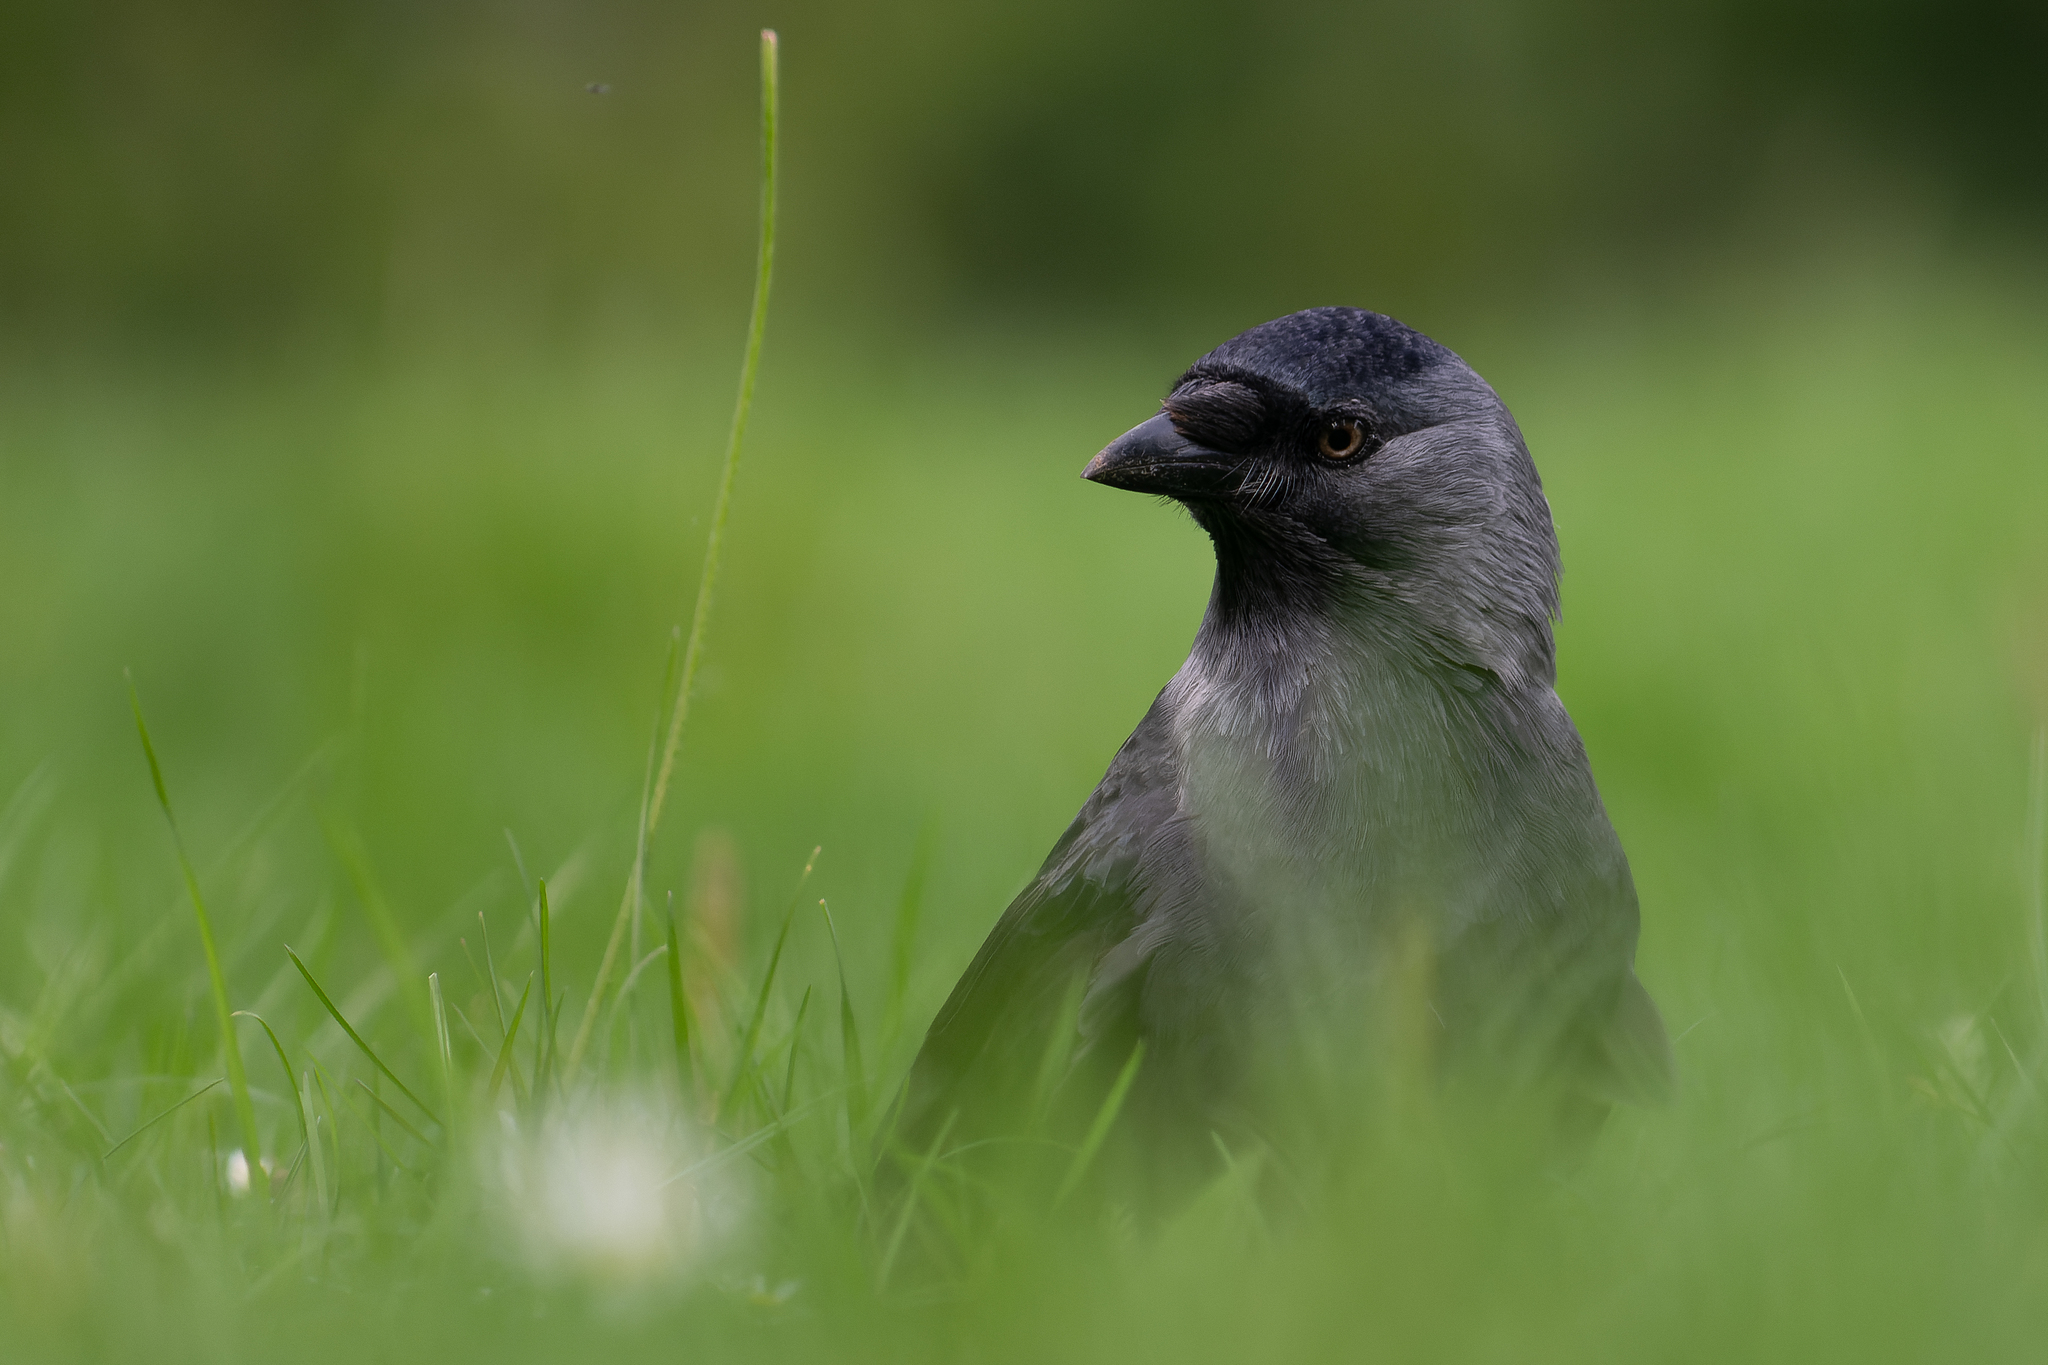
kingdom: Animalia
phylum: Chordata
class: Aves
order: Passeriformes
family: Corvidae
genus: Coloeus
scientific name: Coloeus monedula
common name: Western jackdaw
